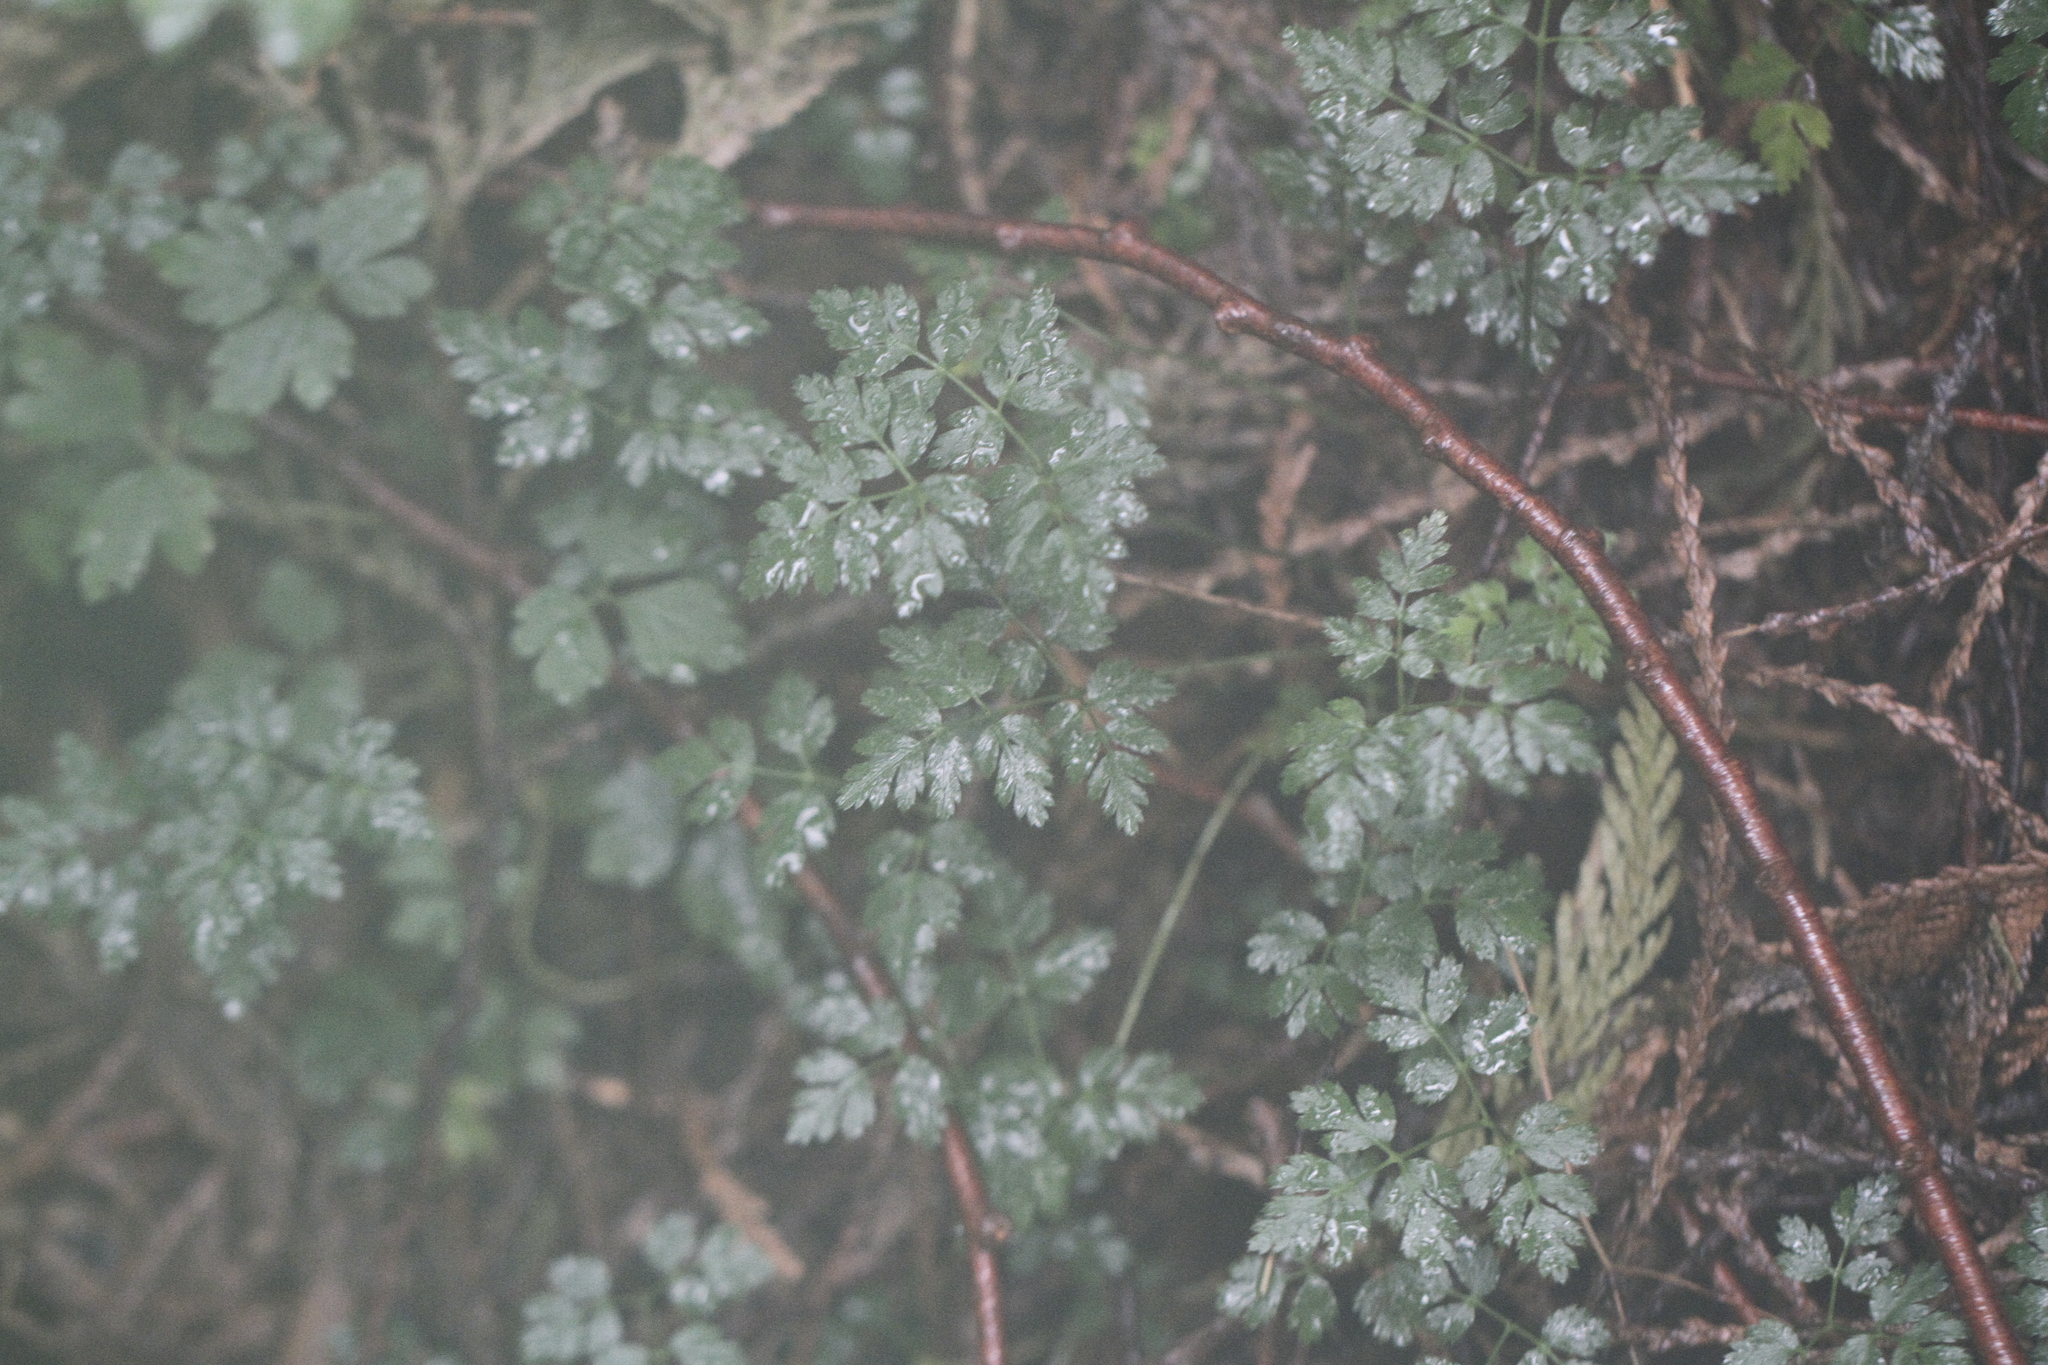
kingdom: Plantae
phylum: Tracheophyta
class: Magnoliopsida
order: Ranunculales
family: Ranunculaceae
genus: Coptis
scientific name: Coptis aspleniifolia
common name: Fern-leaved goldthread
